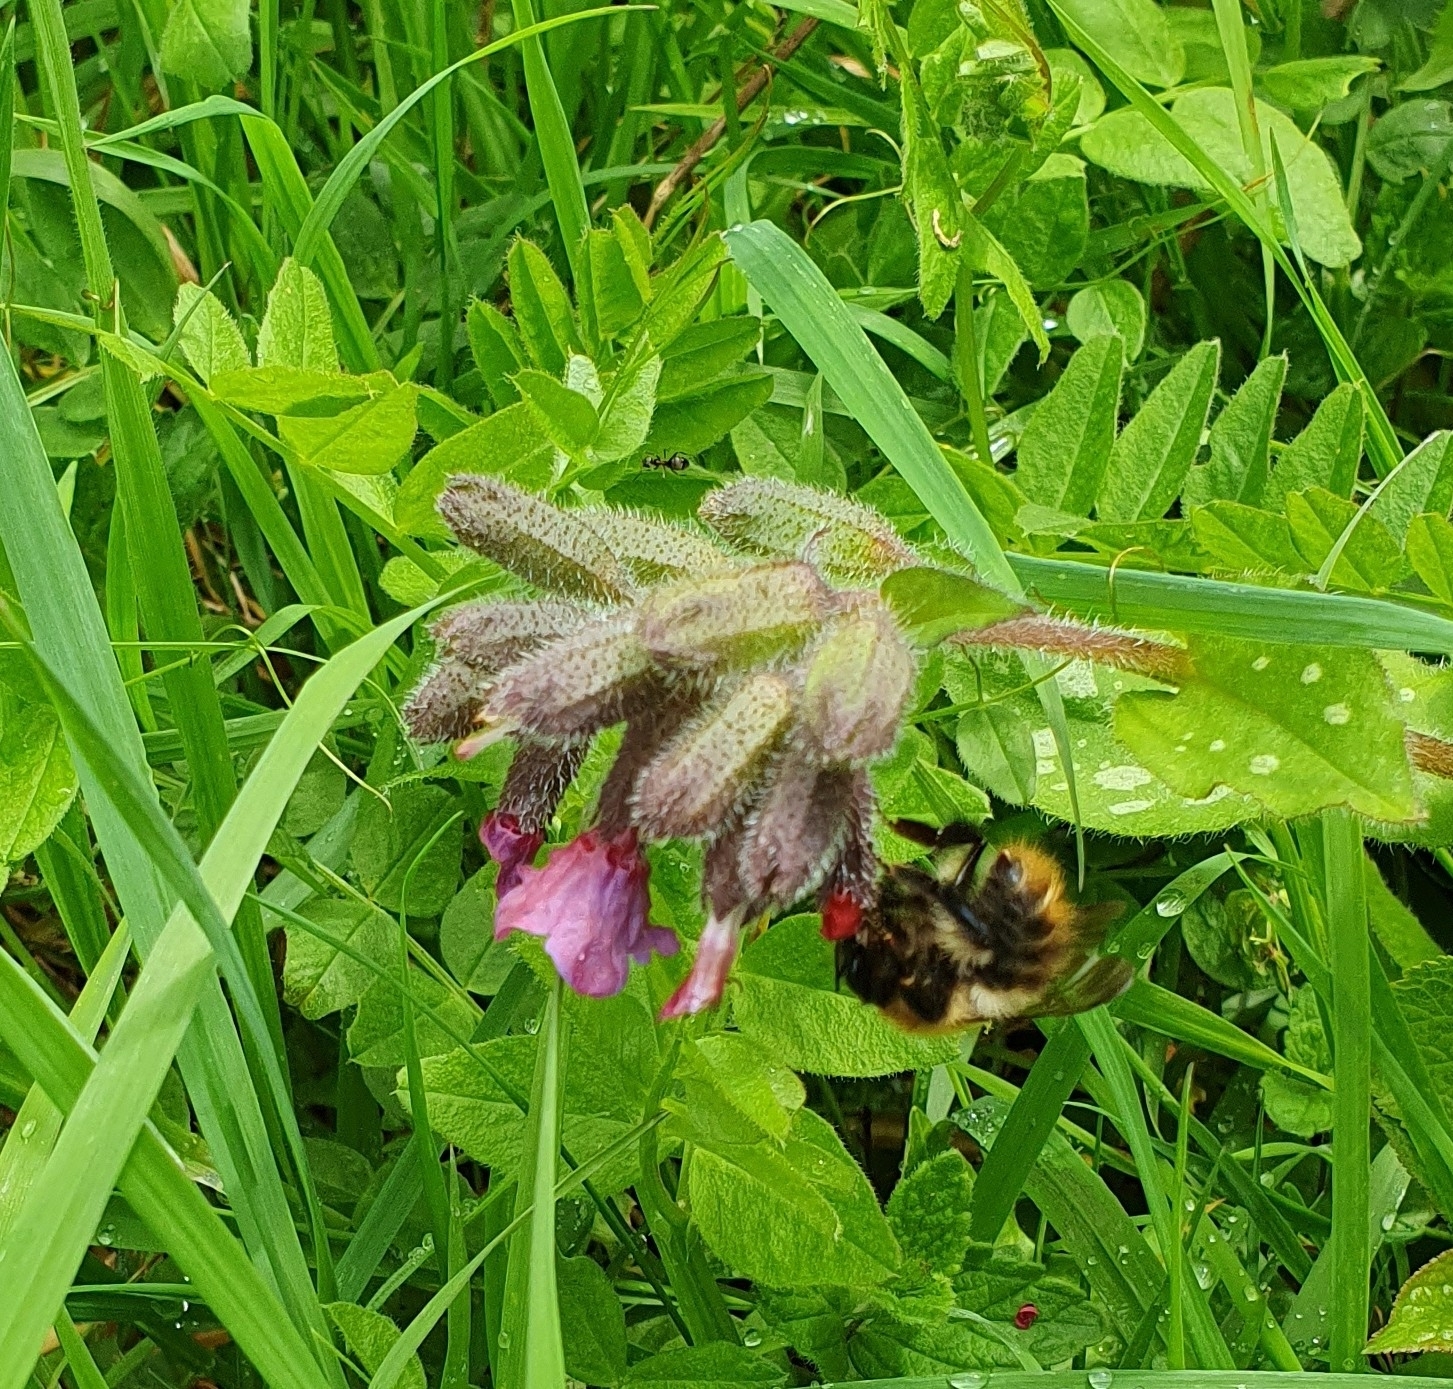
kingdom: Animalia
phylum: Arthropoda
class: Insecta
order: Hymenoptera
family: Apidae
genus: Bombus
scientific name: Bombus pascuorum
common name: Common carder bee
